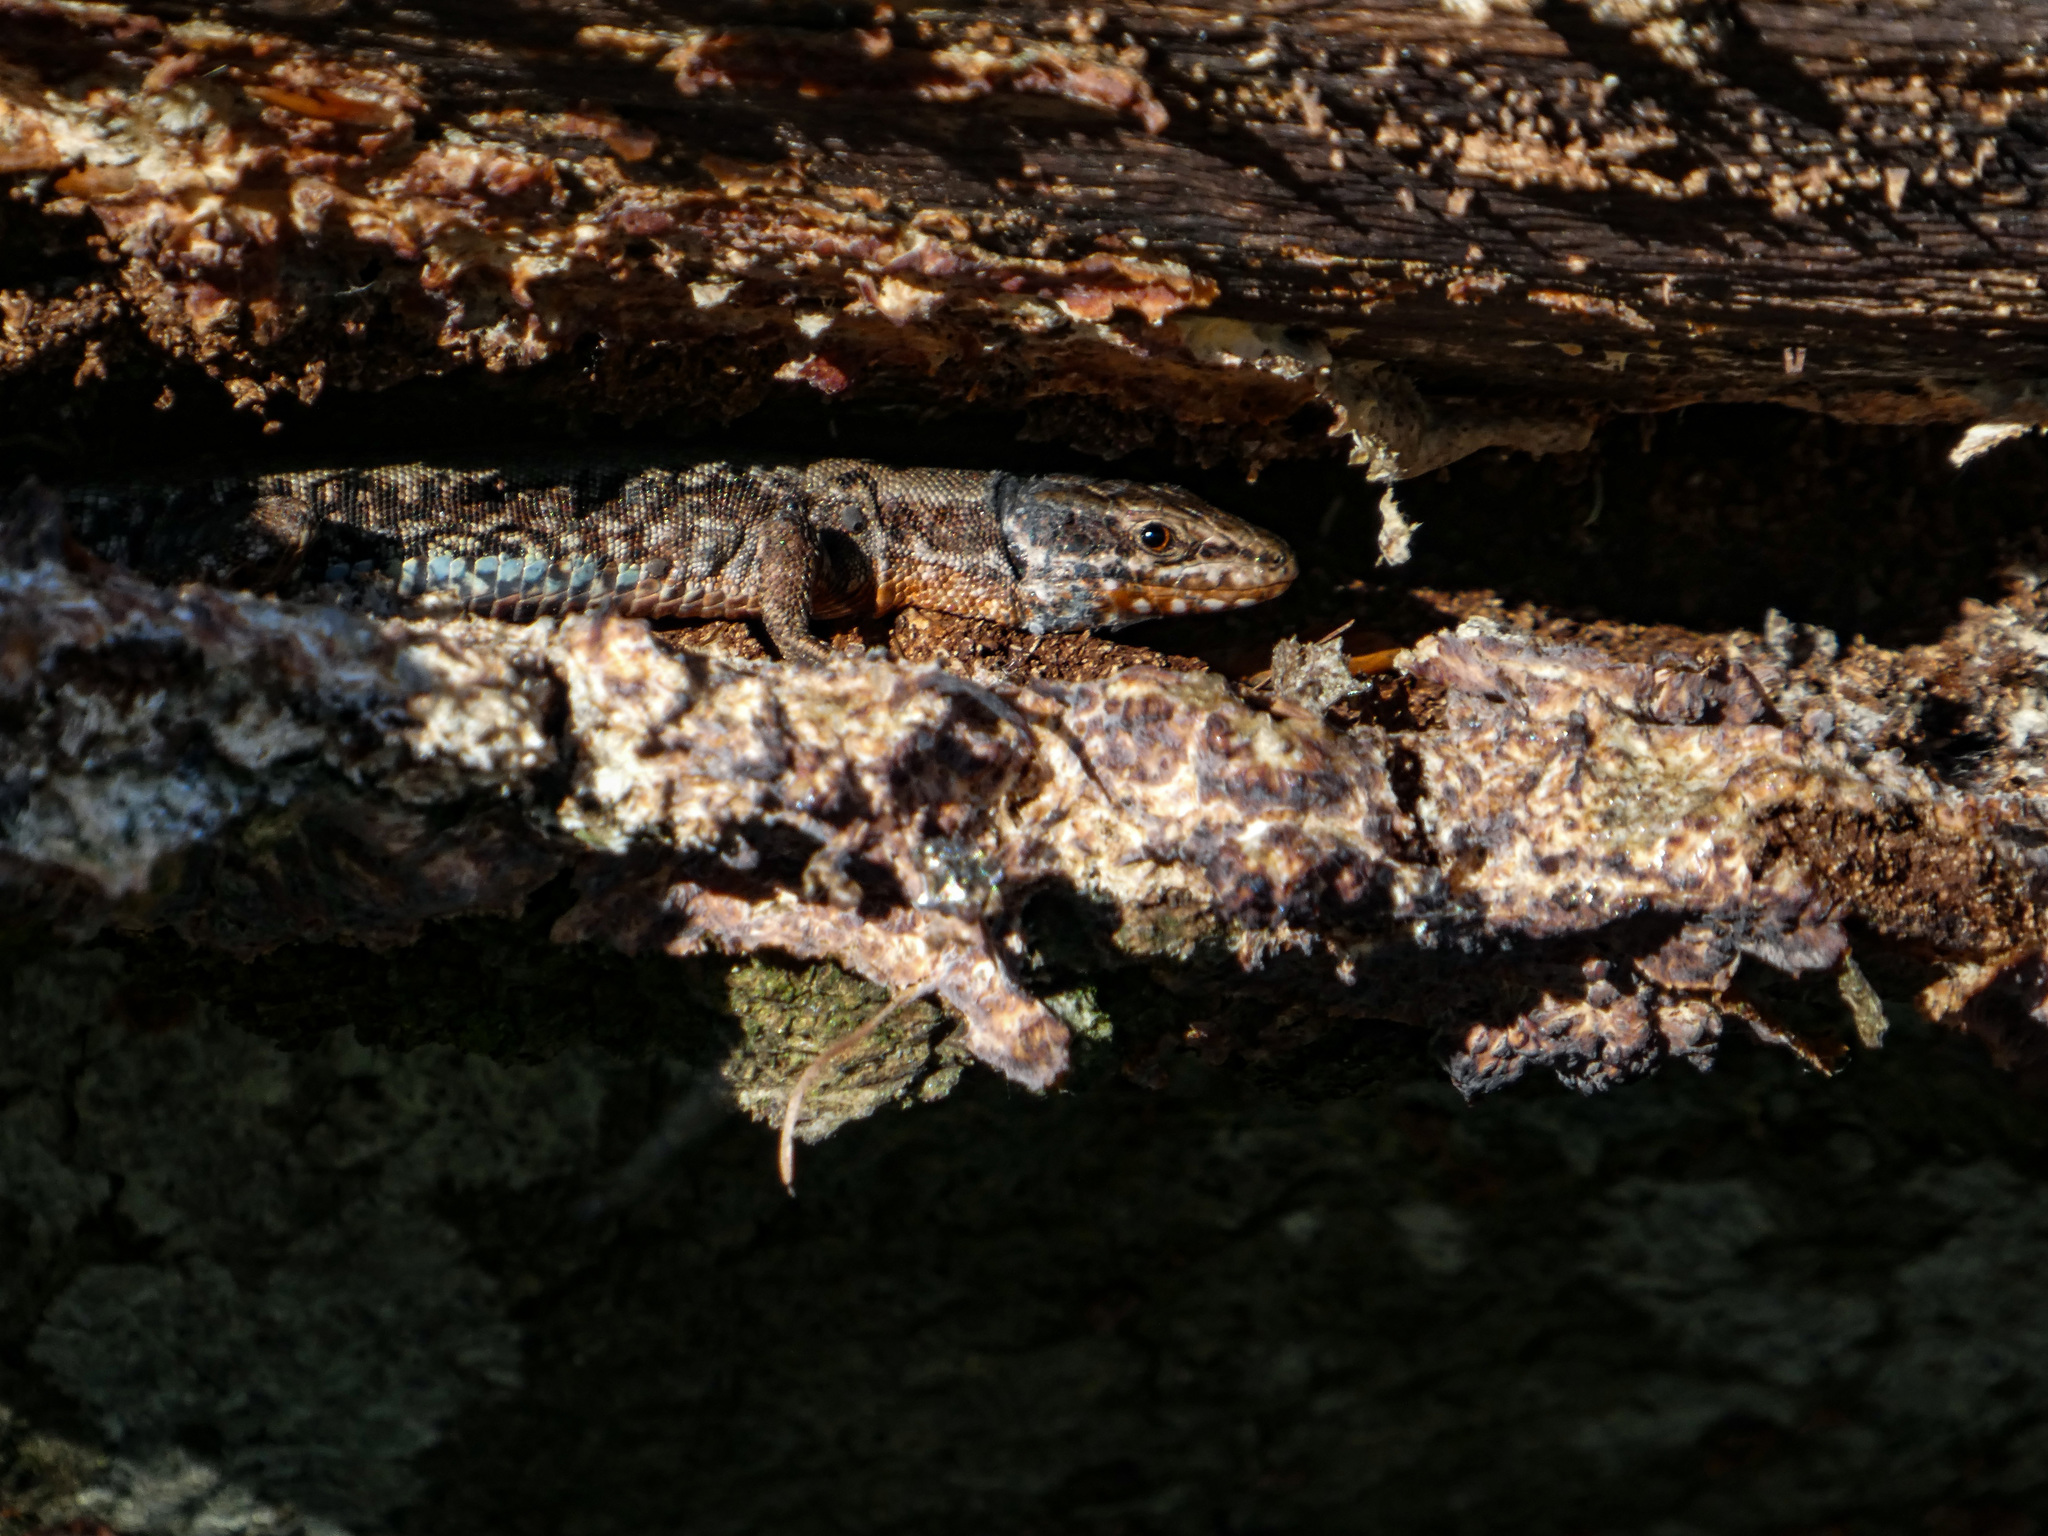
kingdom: Animalia
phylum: Chordata
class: Squamata
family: Lacertidae
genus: Podarcis
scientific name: Podarcis muralis
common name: Common wall lizard
